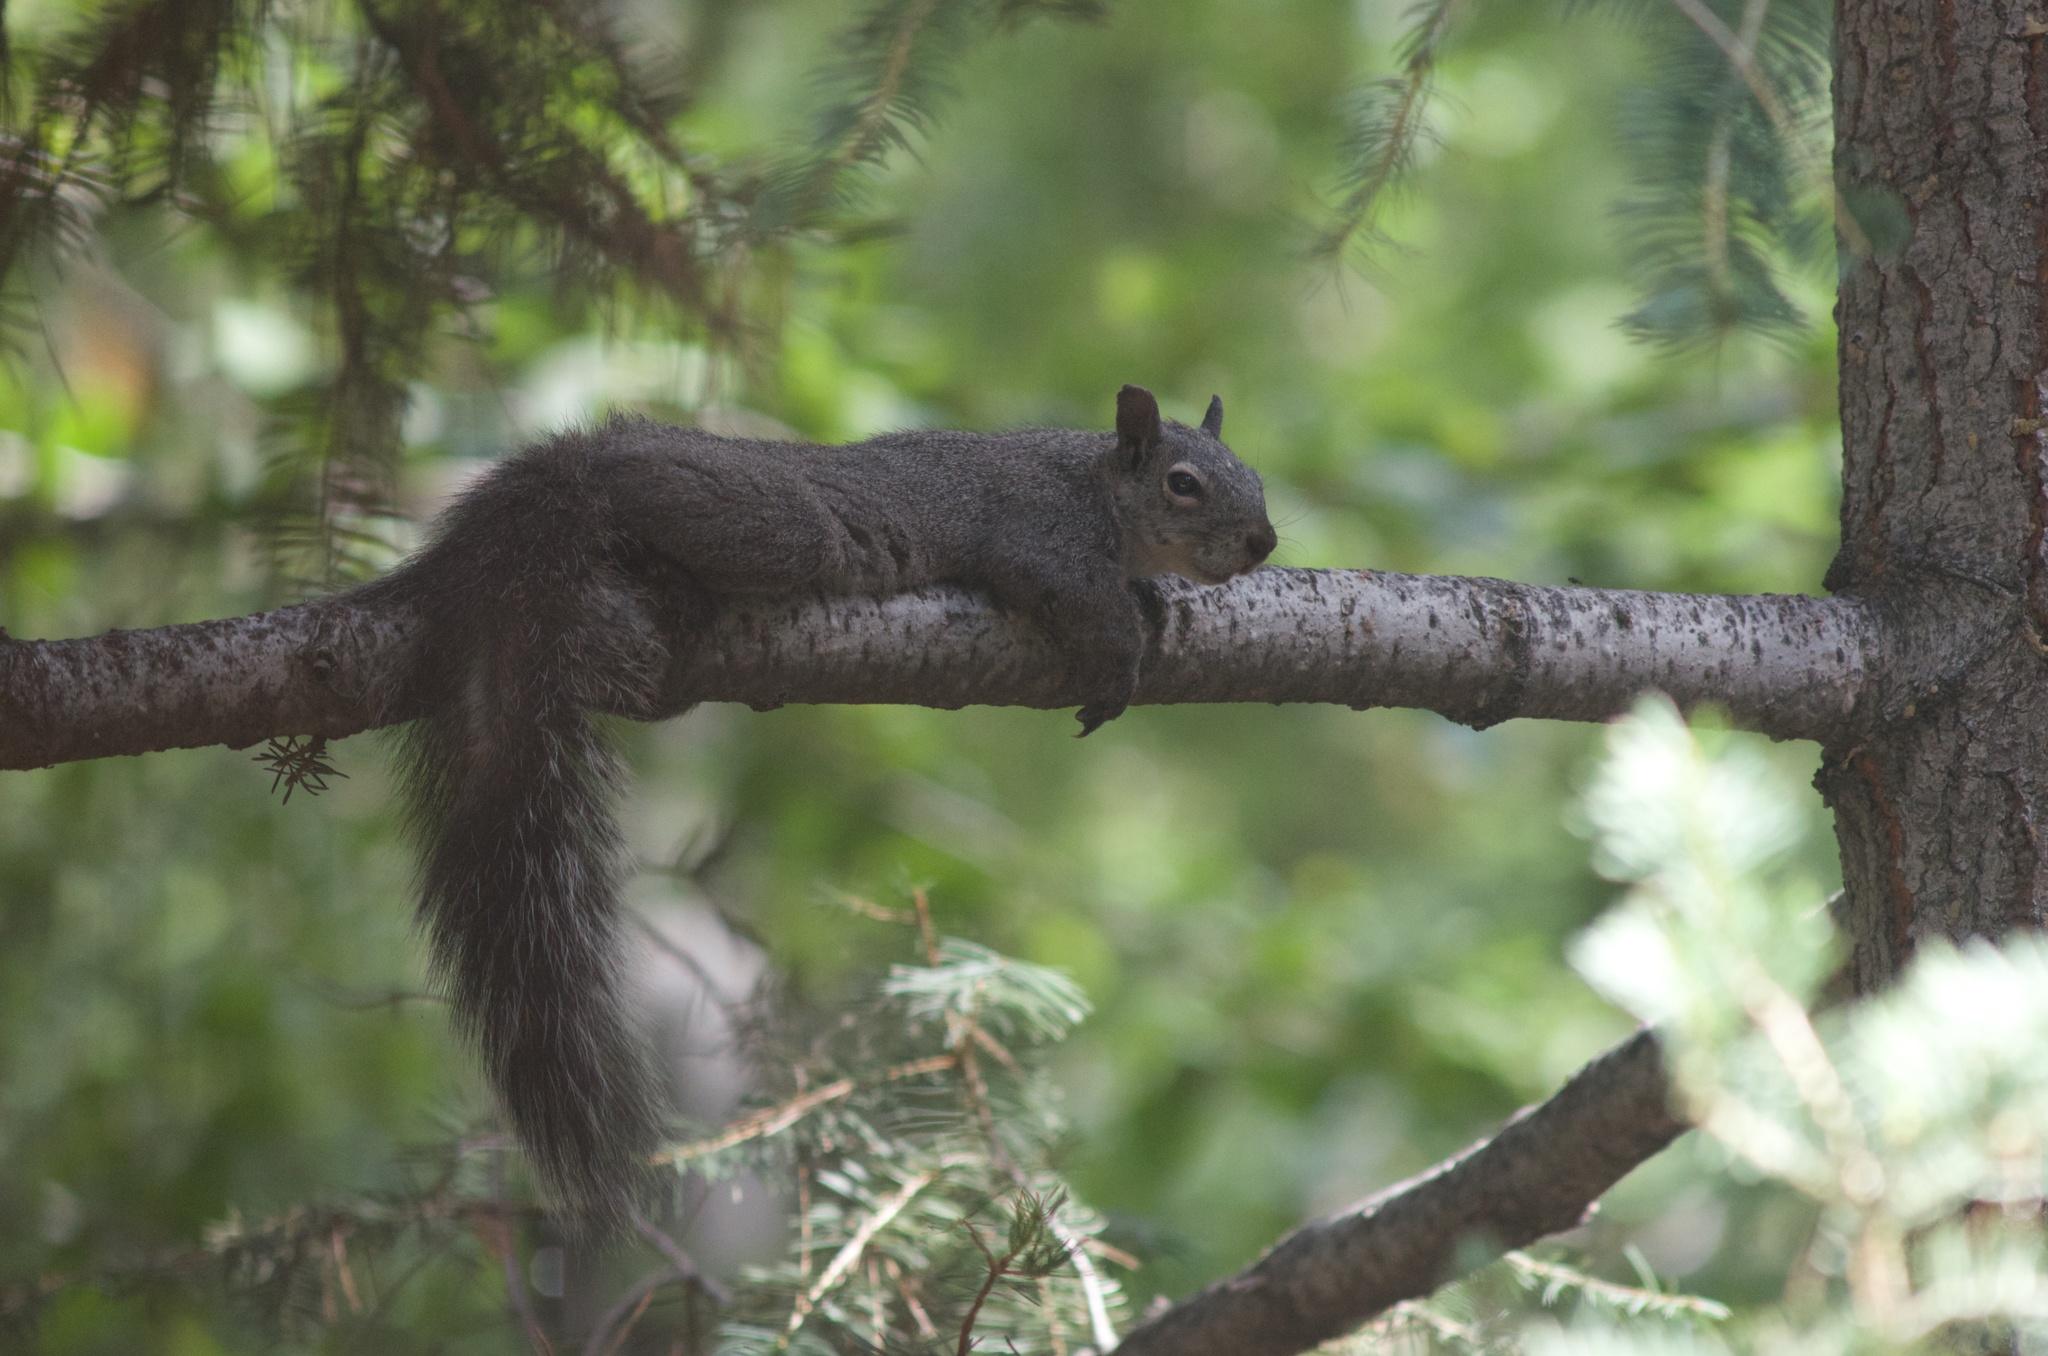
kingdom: Animalia
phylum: Chordata
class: Mammalia
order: Rodentia
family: Sciuridae
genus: Sciurus
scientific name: Sciurus griseus
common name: Western gray squirrel
